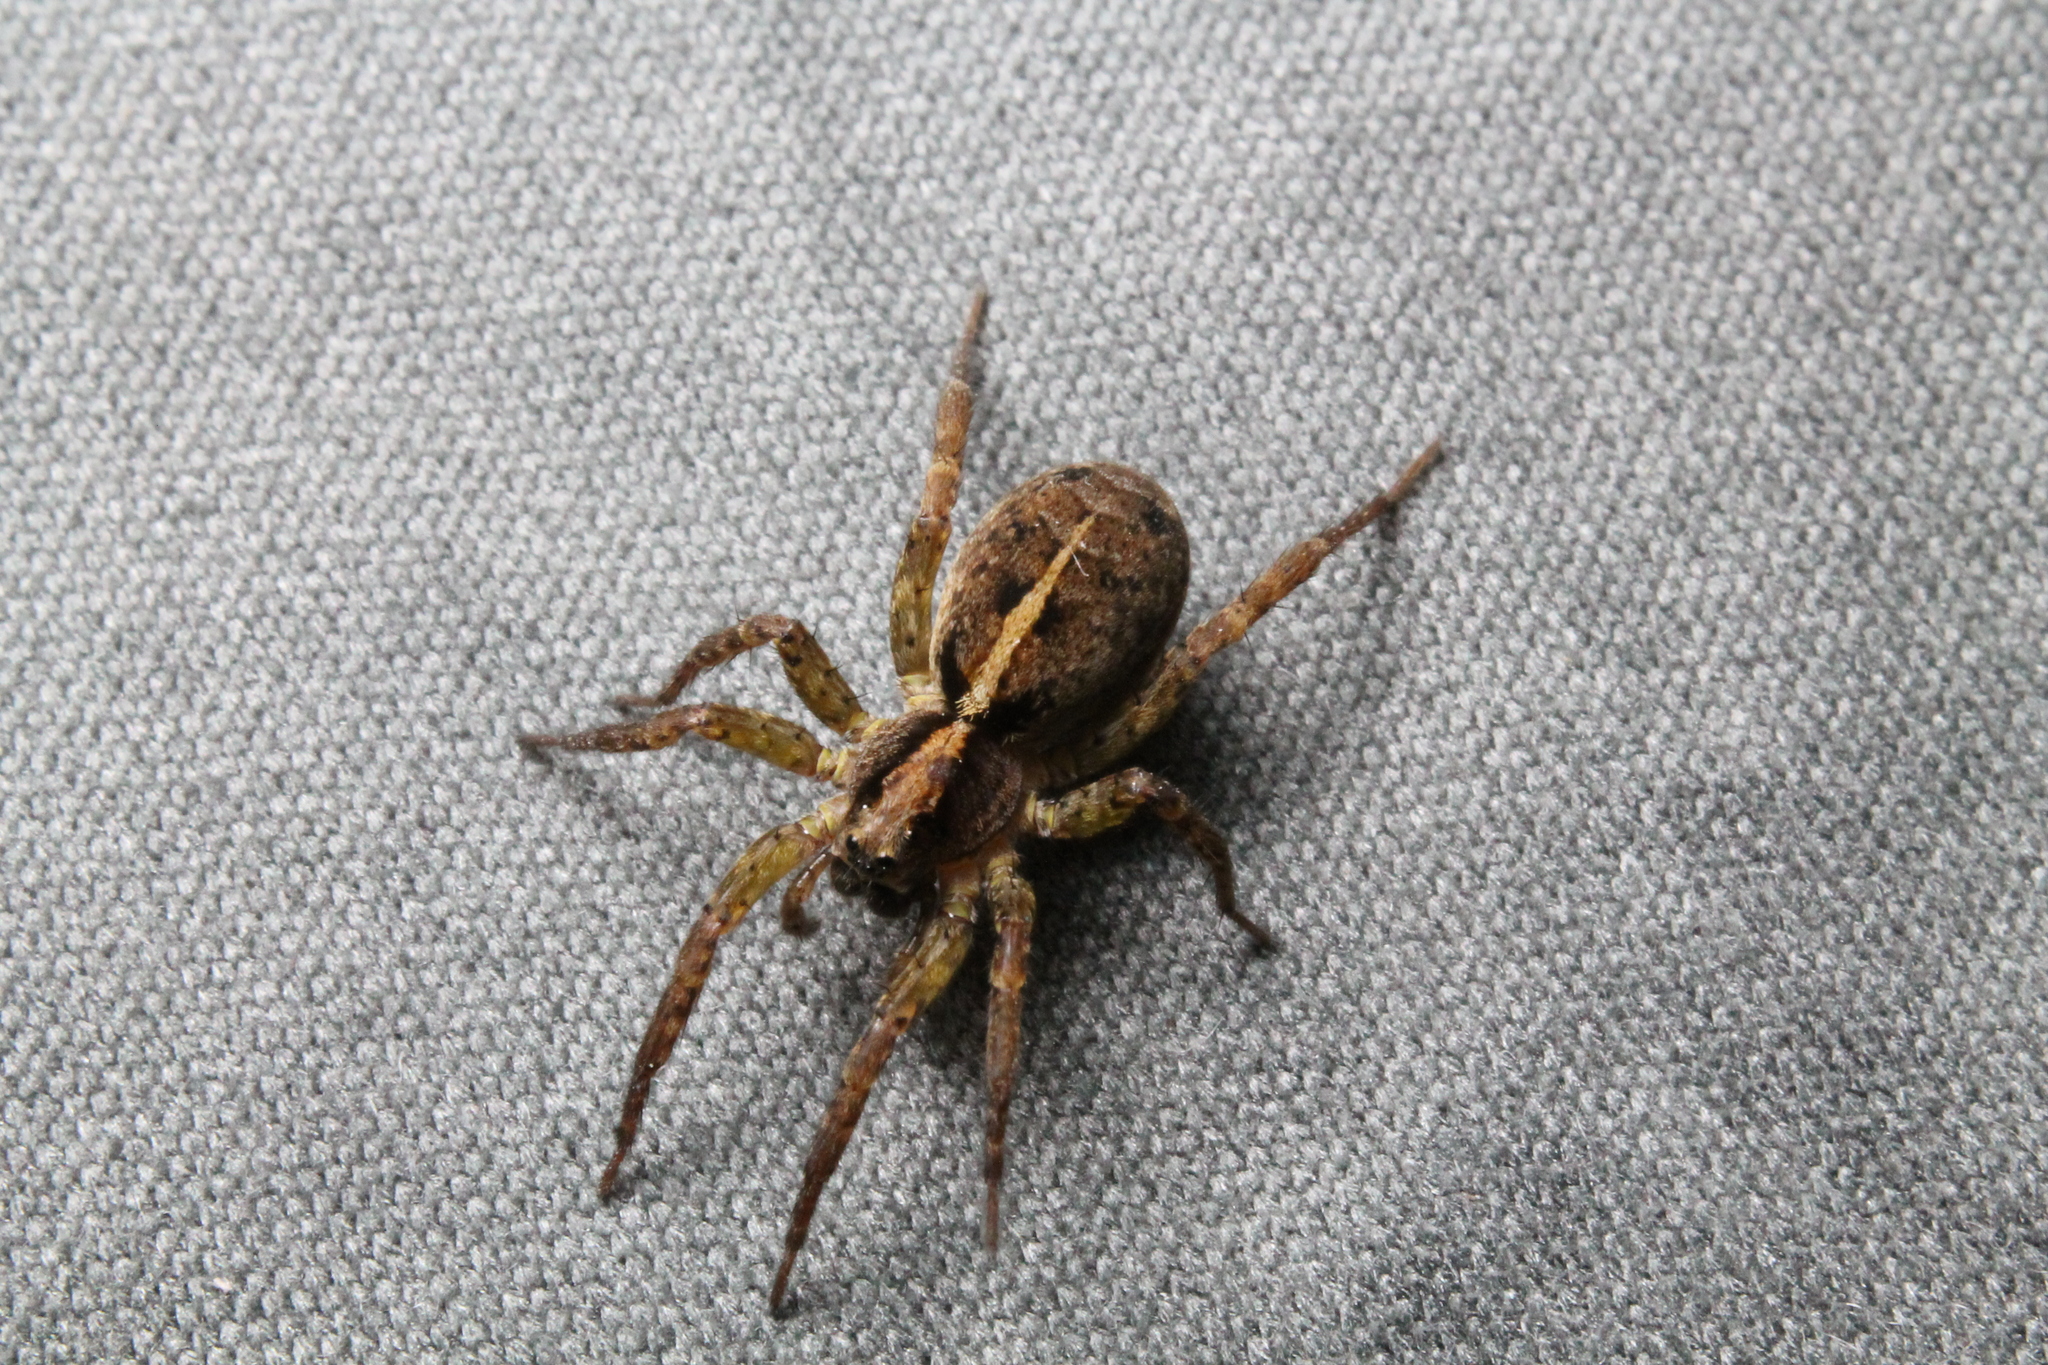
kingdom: Animalia
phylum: Arthropoda
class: Arachnida
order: Araneae
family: Lycosidae
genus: Anoteropsis
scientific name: Anoteropsis hilaris
